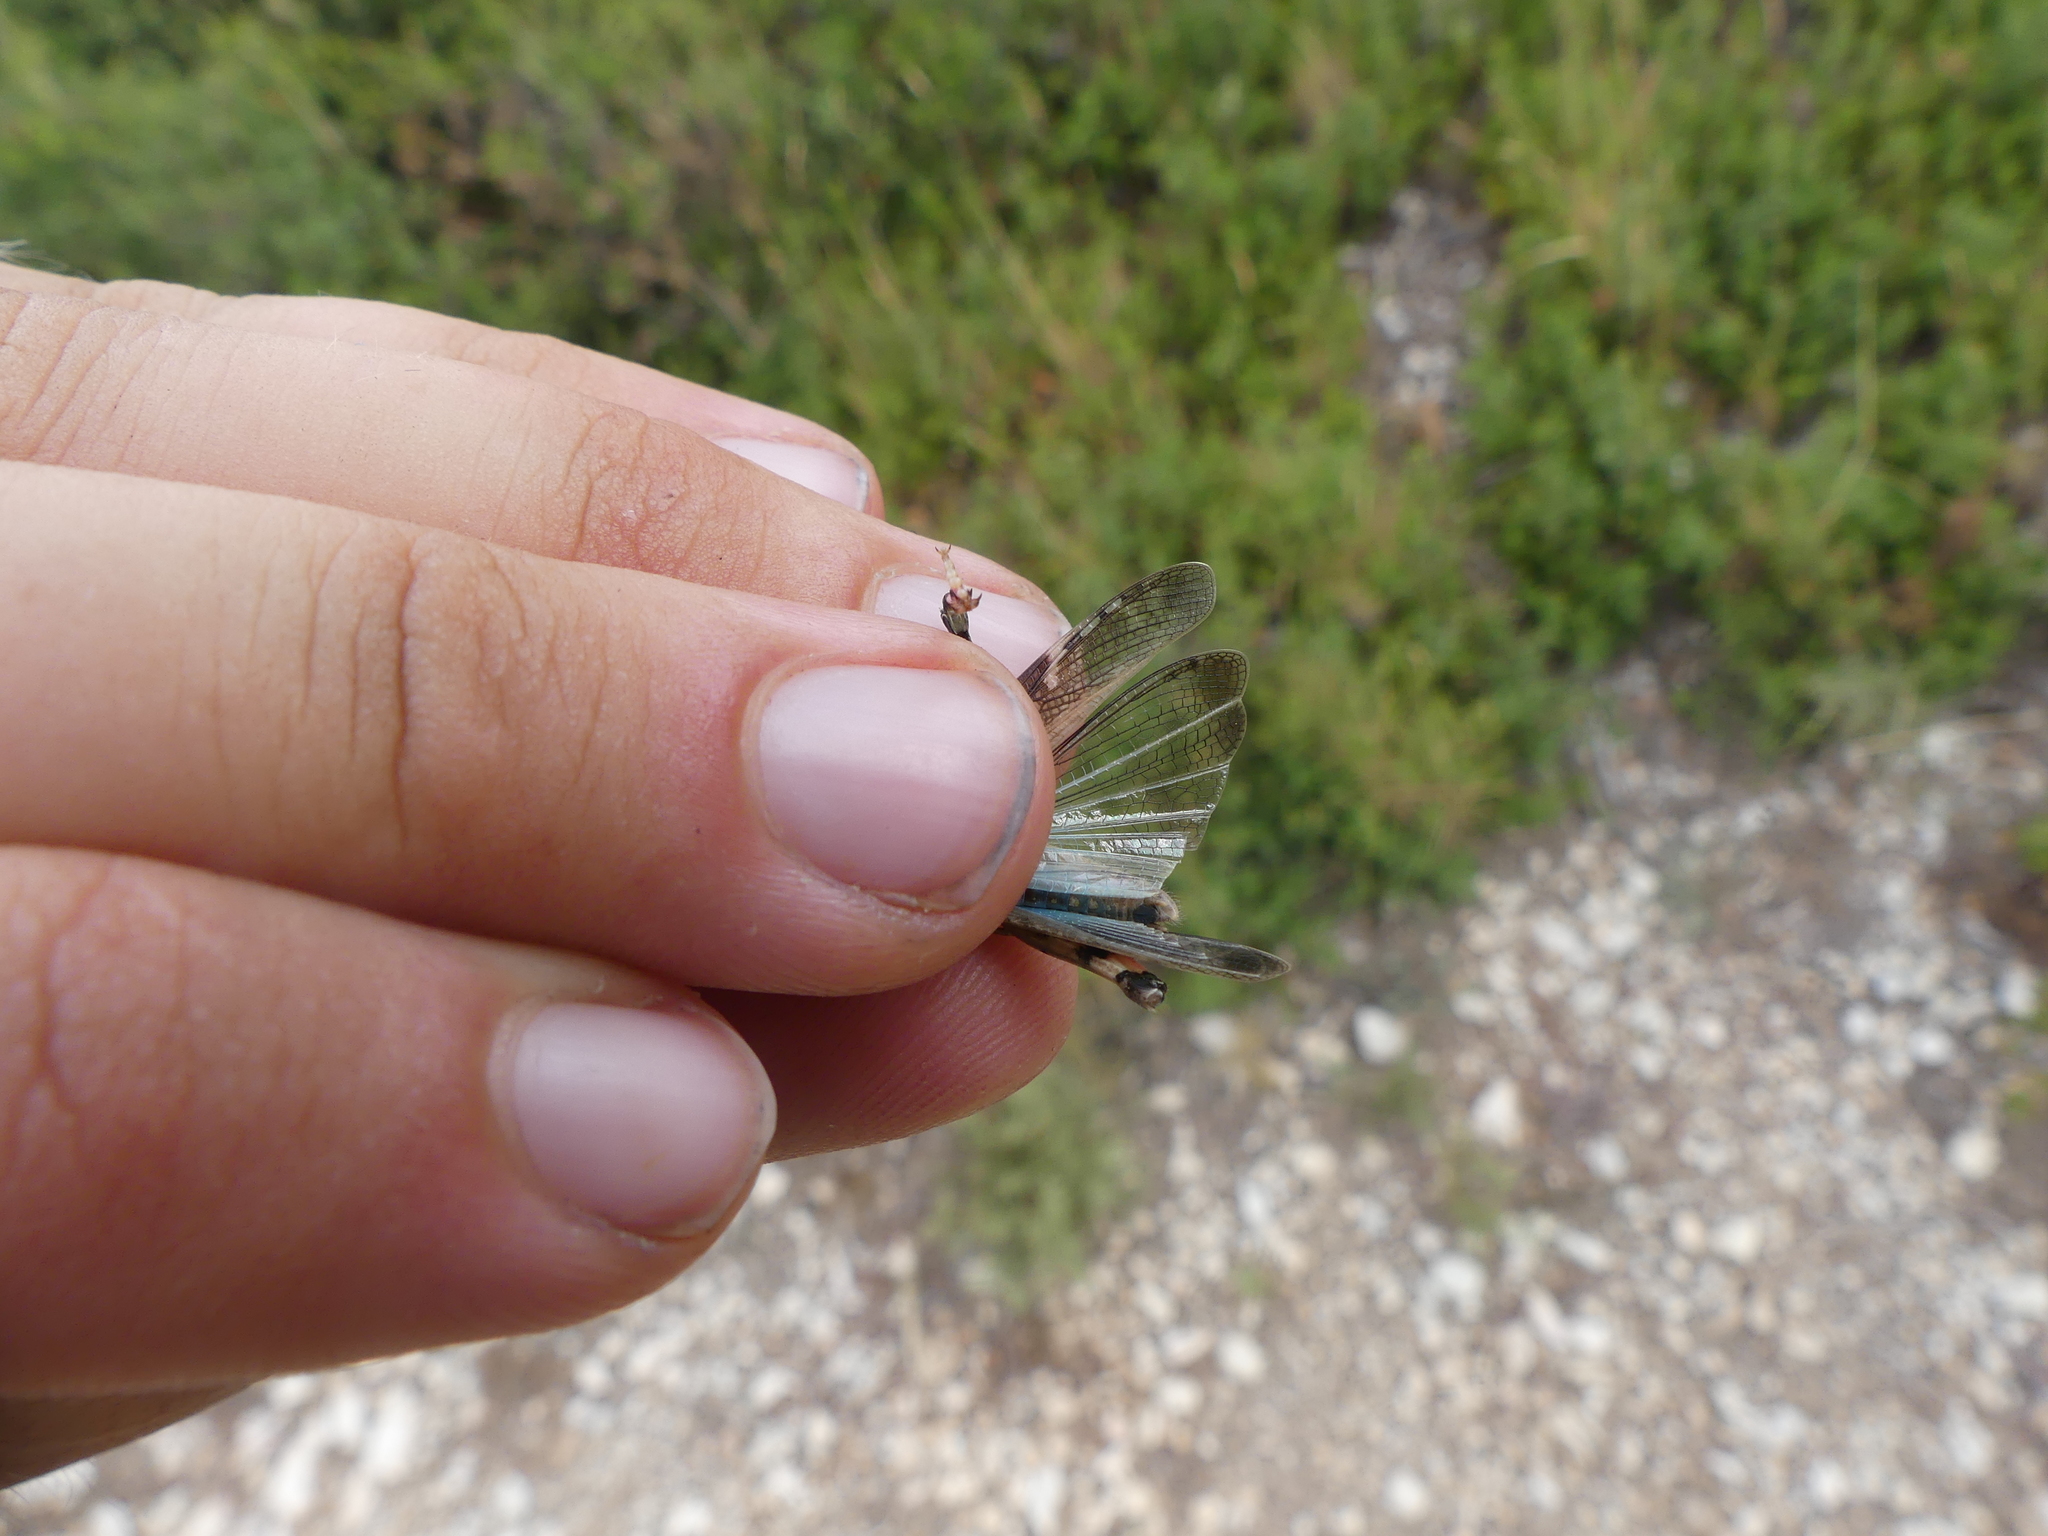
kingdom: Animalia
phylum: Arthropoda
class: Insecta
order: Orthoptera
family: Acrididae
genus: Aiolopus
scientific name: Aiolopus strepens
